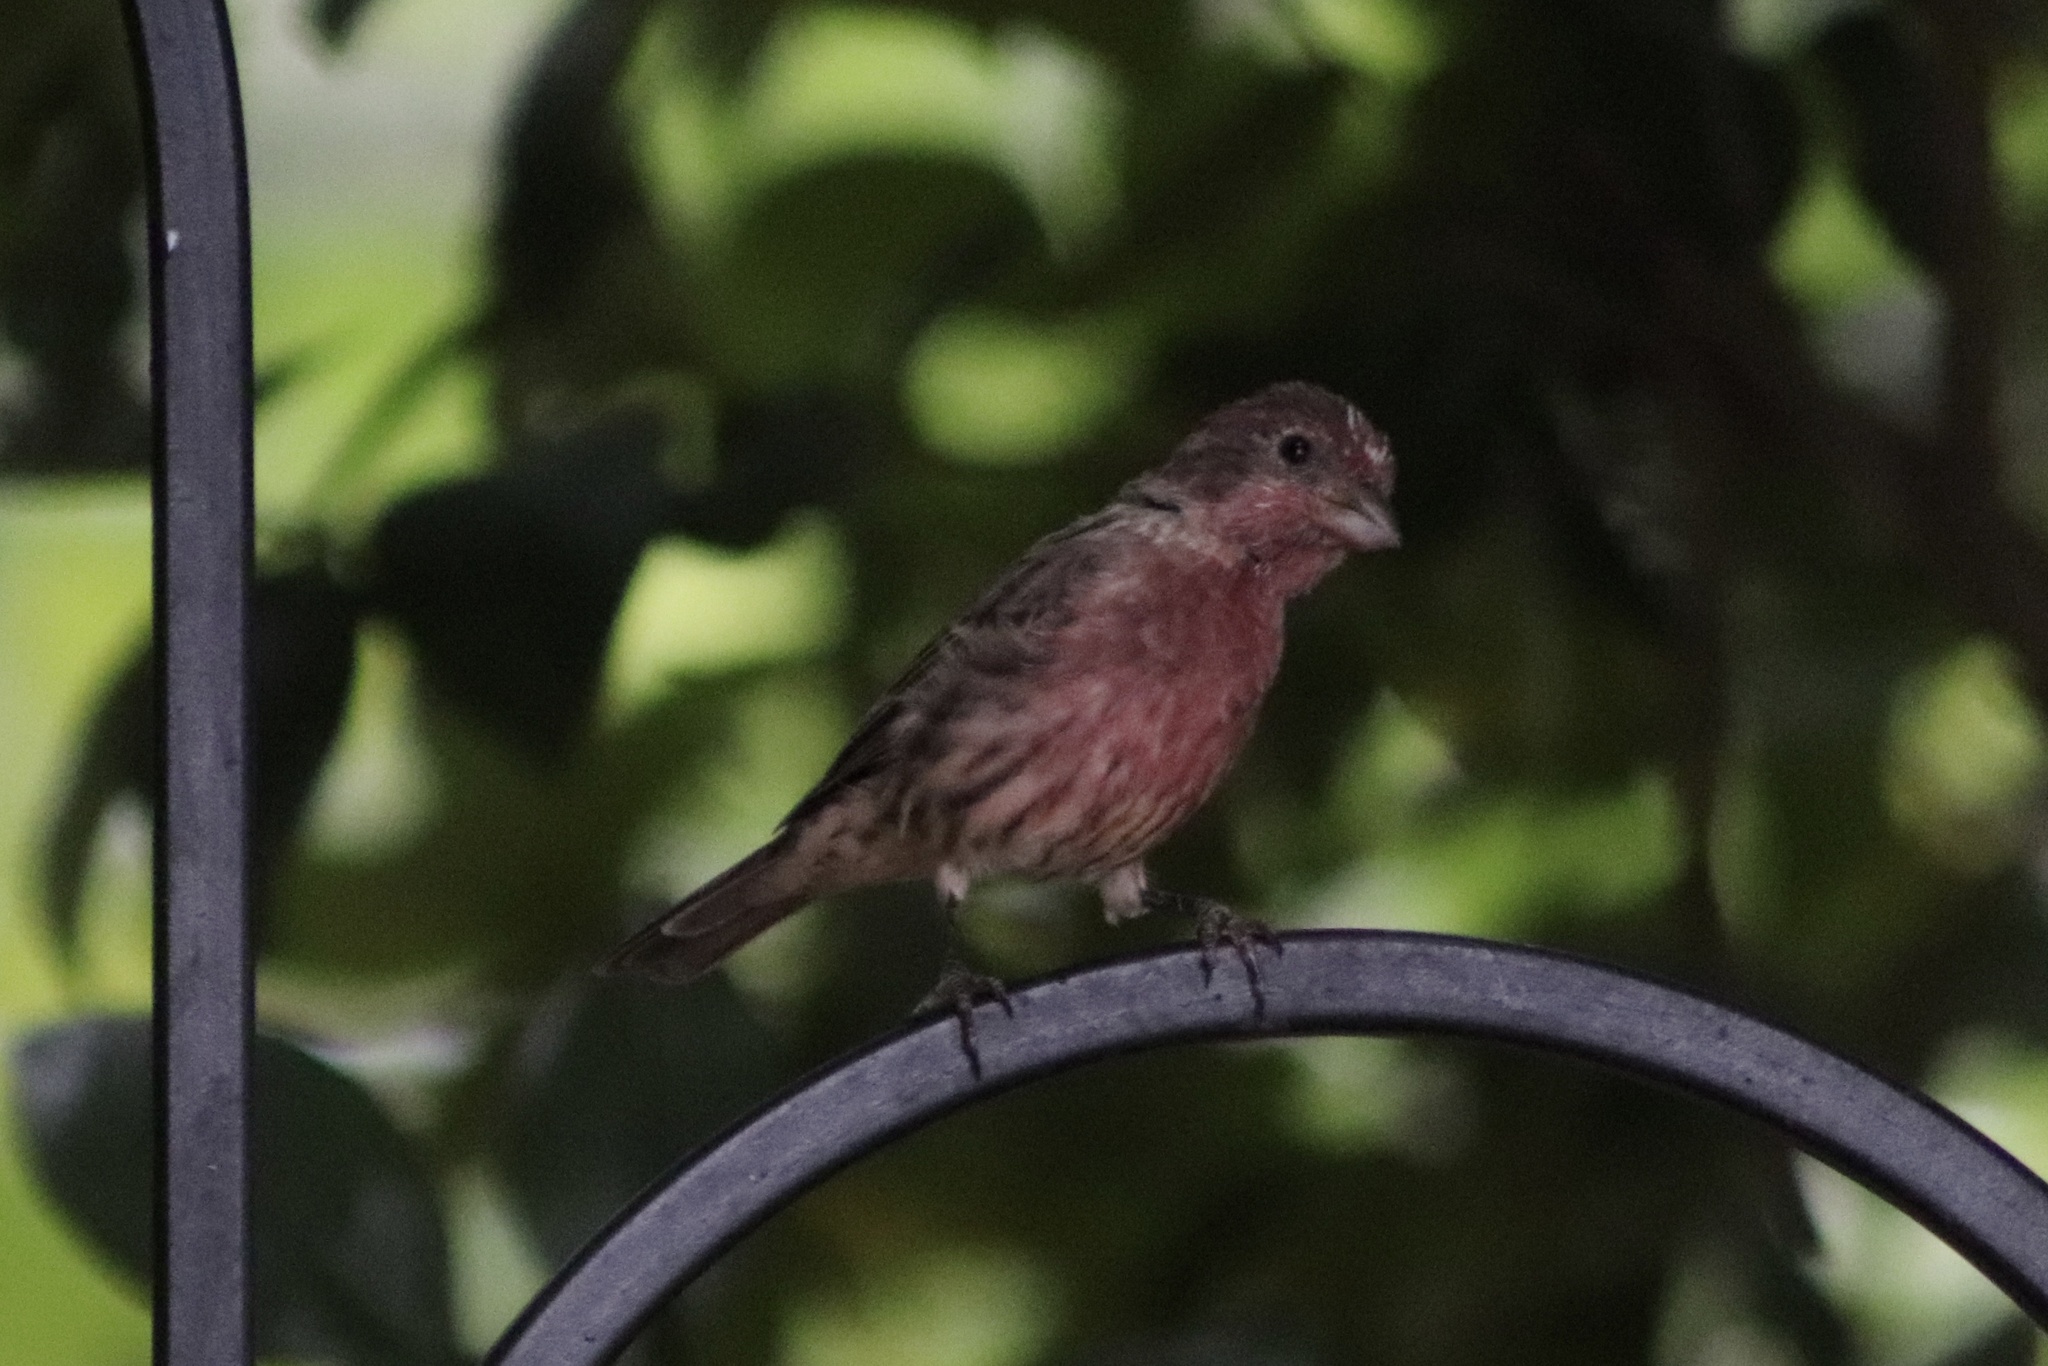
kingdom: Animalia
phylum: Chordata
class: Aves
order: Passeriformes
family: Fringillidae
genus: Haemorhous
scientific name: Haemorhous mexicanus
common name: House finch
